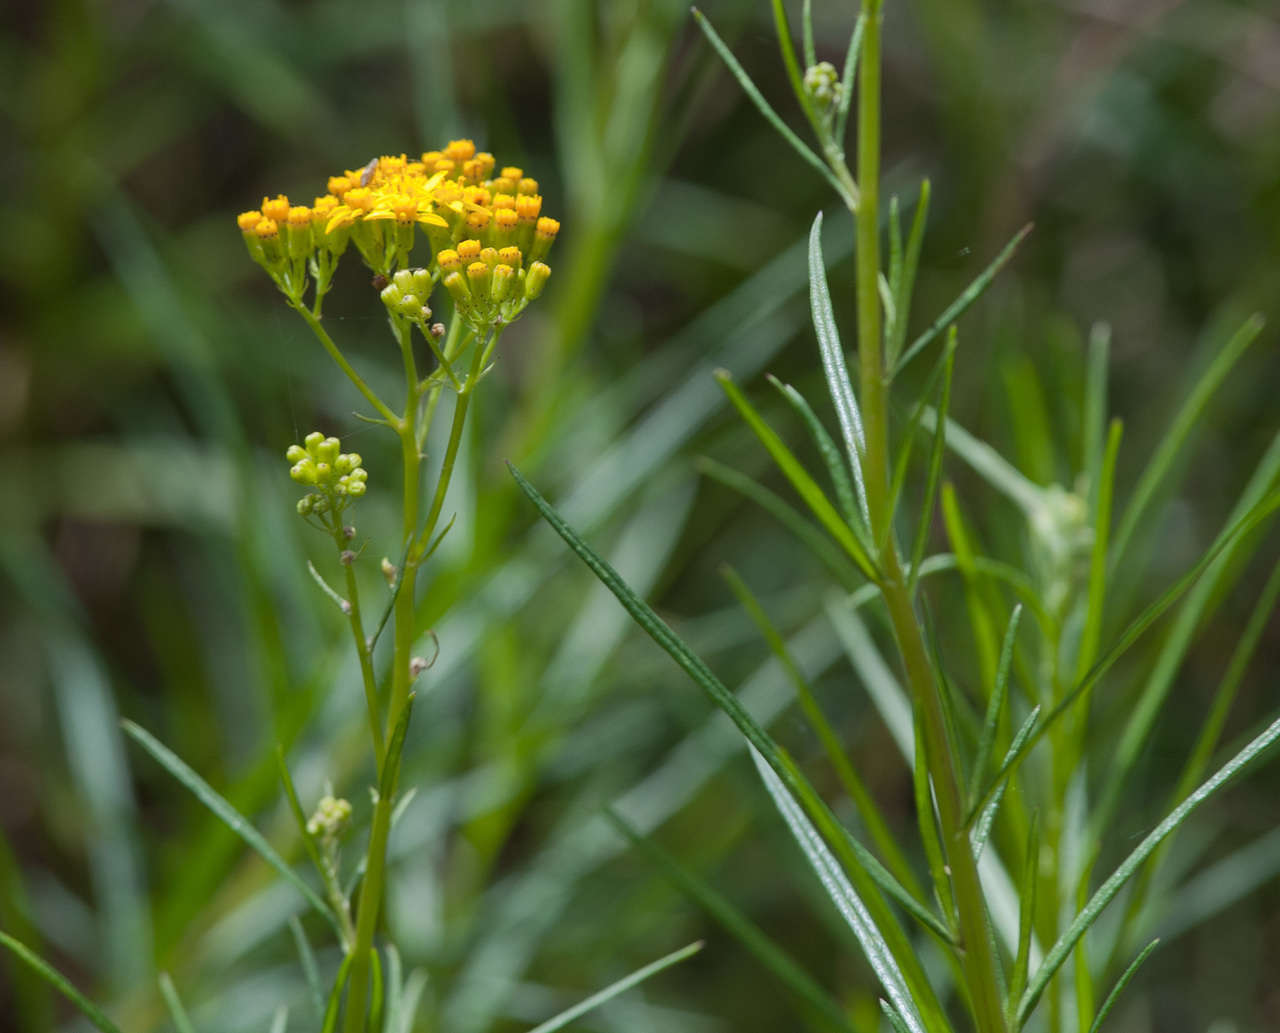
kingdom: Plantae
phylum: Tracheophyta
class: Magnoliopsida
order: Asterales
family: Asteraceae
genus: Senecio
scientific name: Senecio linearifolius
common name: Fireweed groundsel
